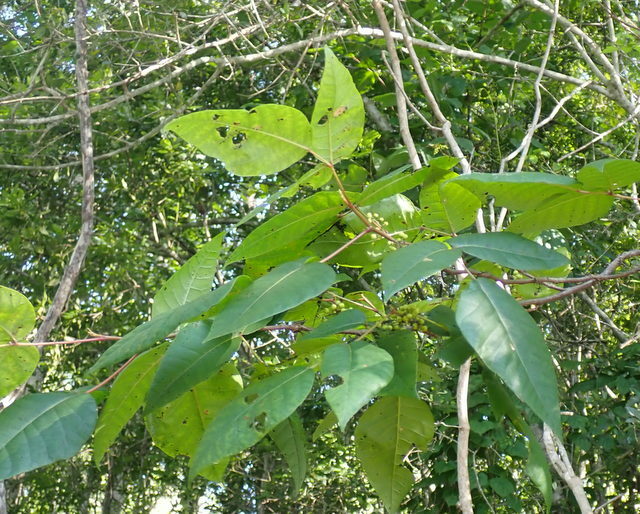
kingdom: Plantae
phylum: Tracheophyta
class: Magnoliopsida
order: Sapindales
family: Anacardiaceae
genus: Toxicodendron
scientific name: Toxicodendron radicans
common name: Poison ivy
